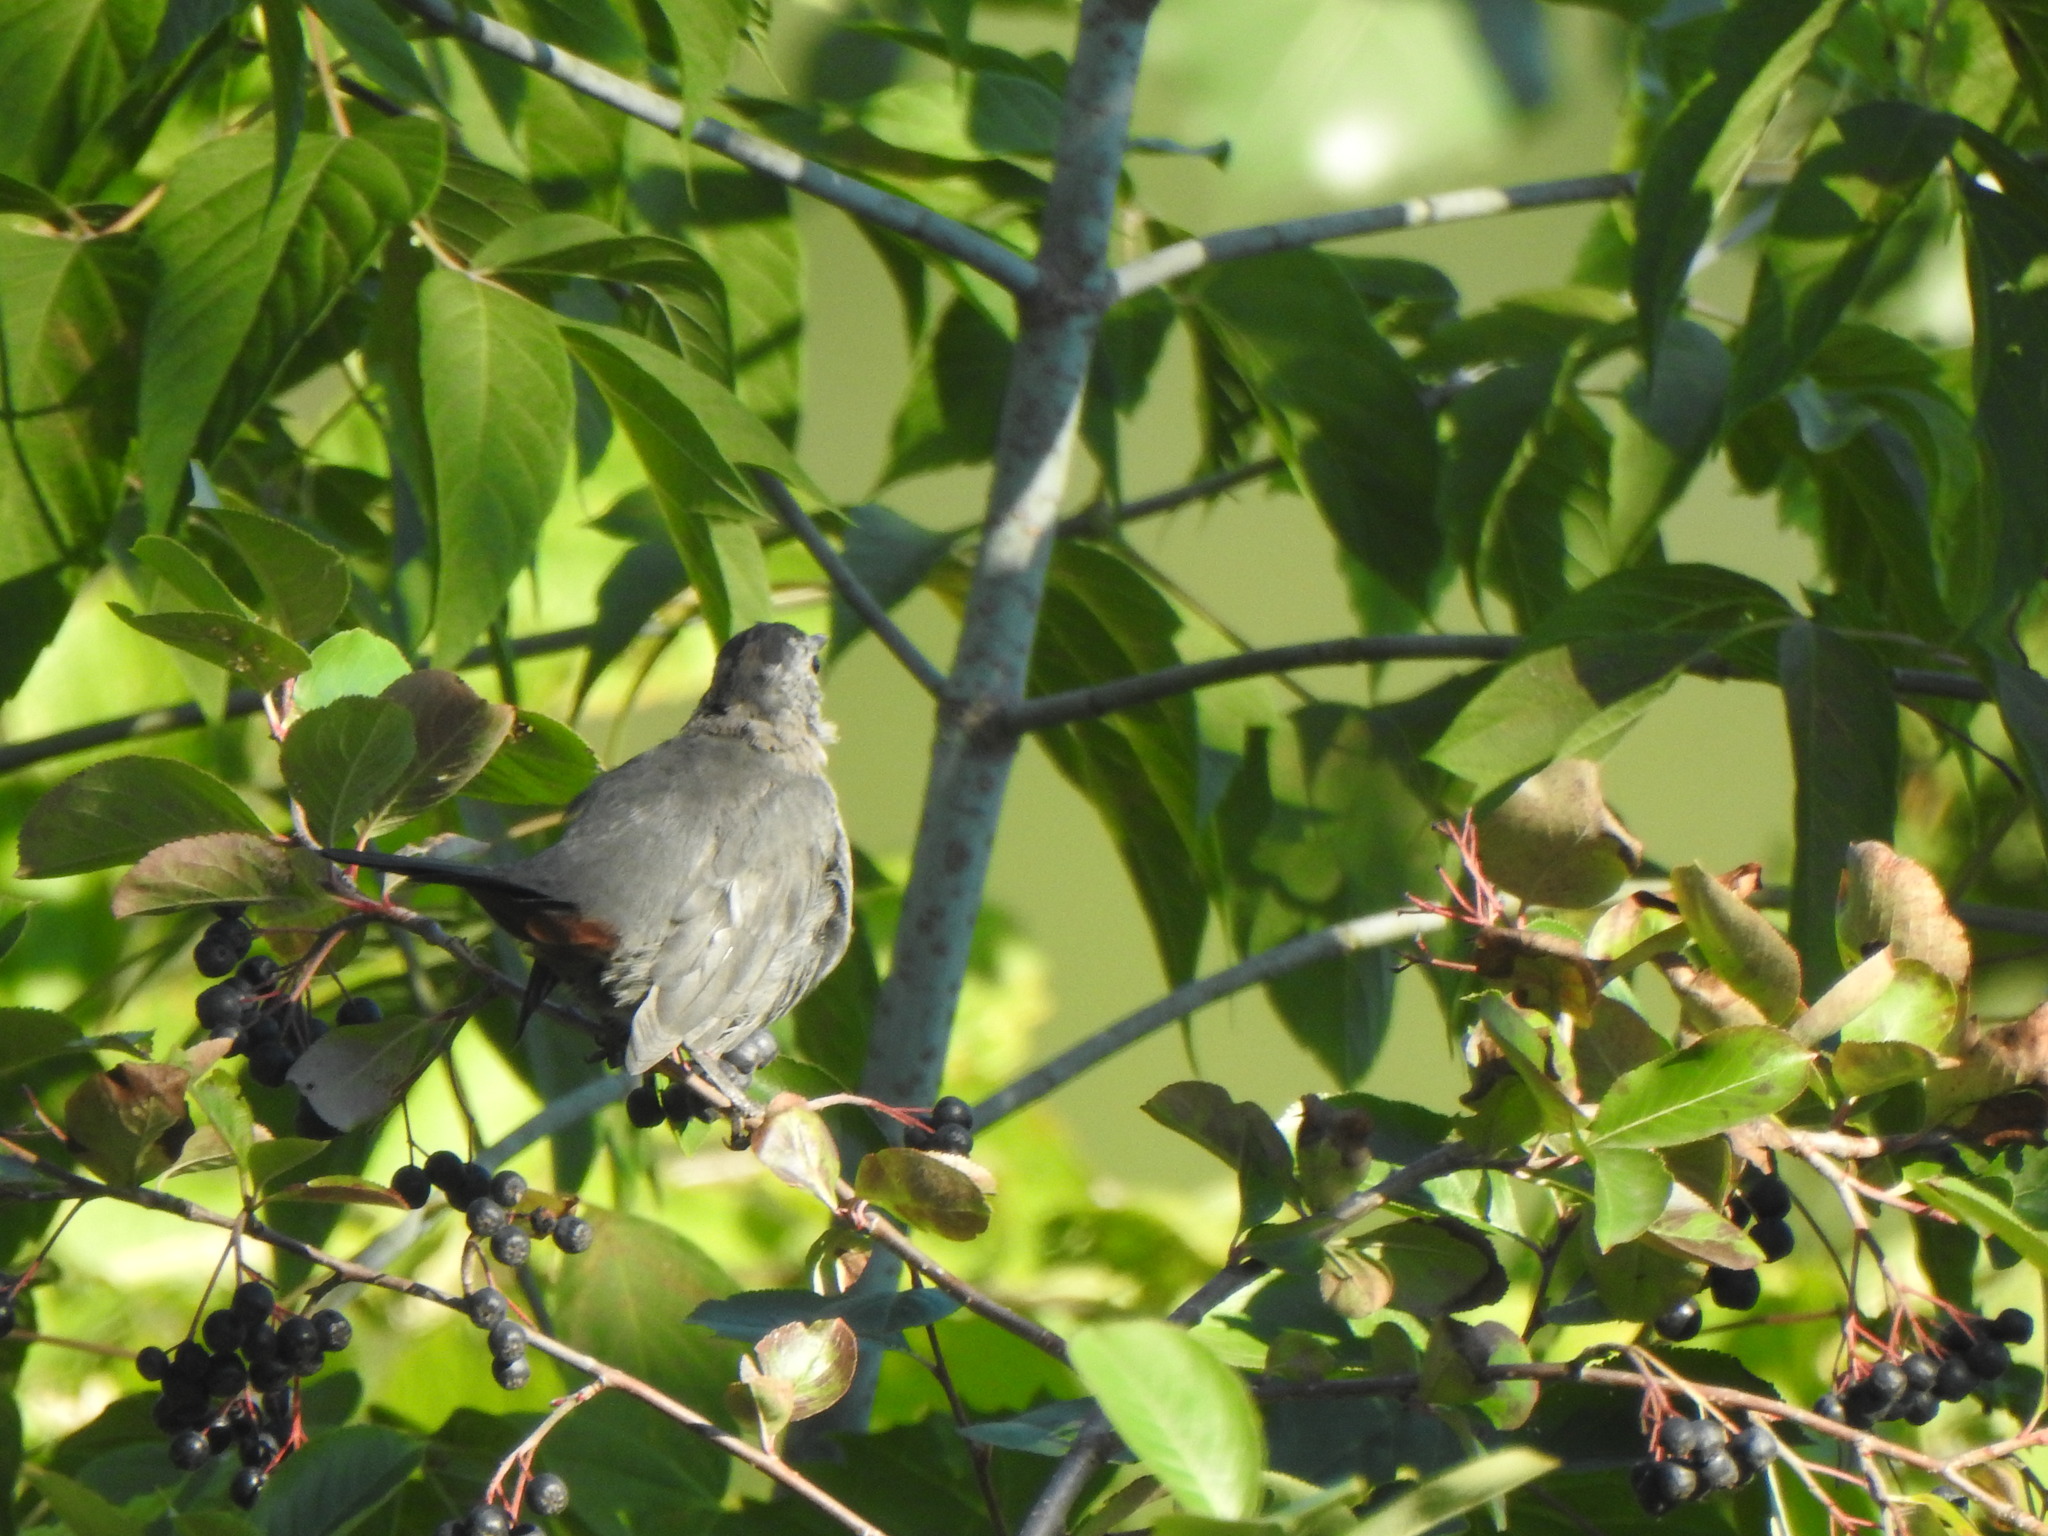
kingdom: Animalia
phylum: Chordata
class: Aves
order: Passeriformes
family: Mimidae
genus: Dumetella
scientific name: Dumetella carolinensis
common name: Gray catbird
